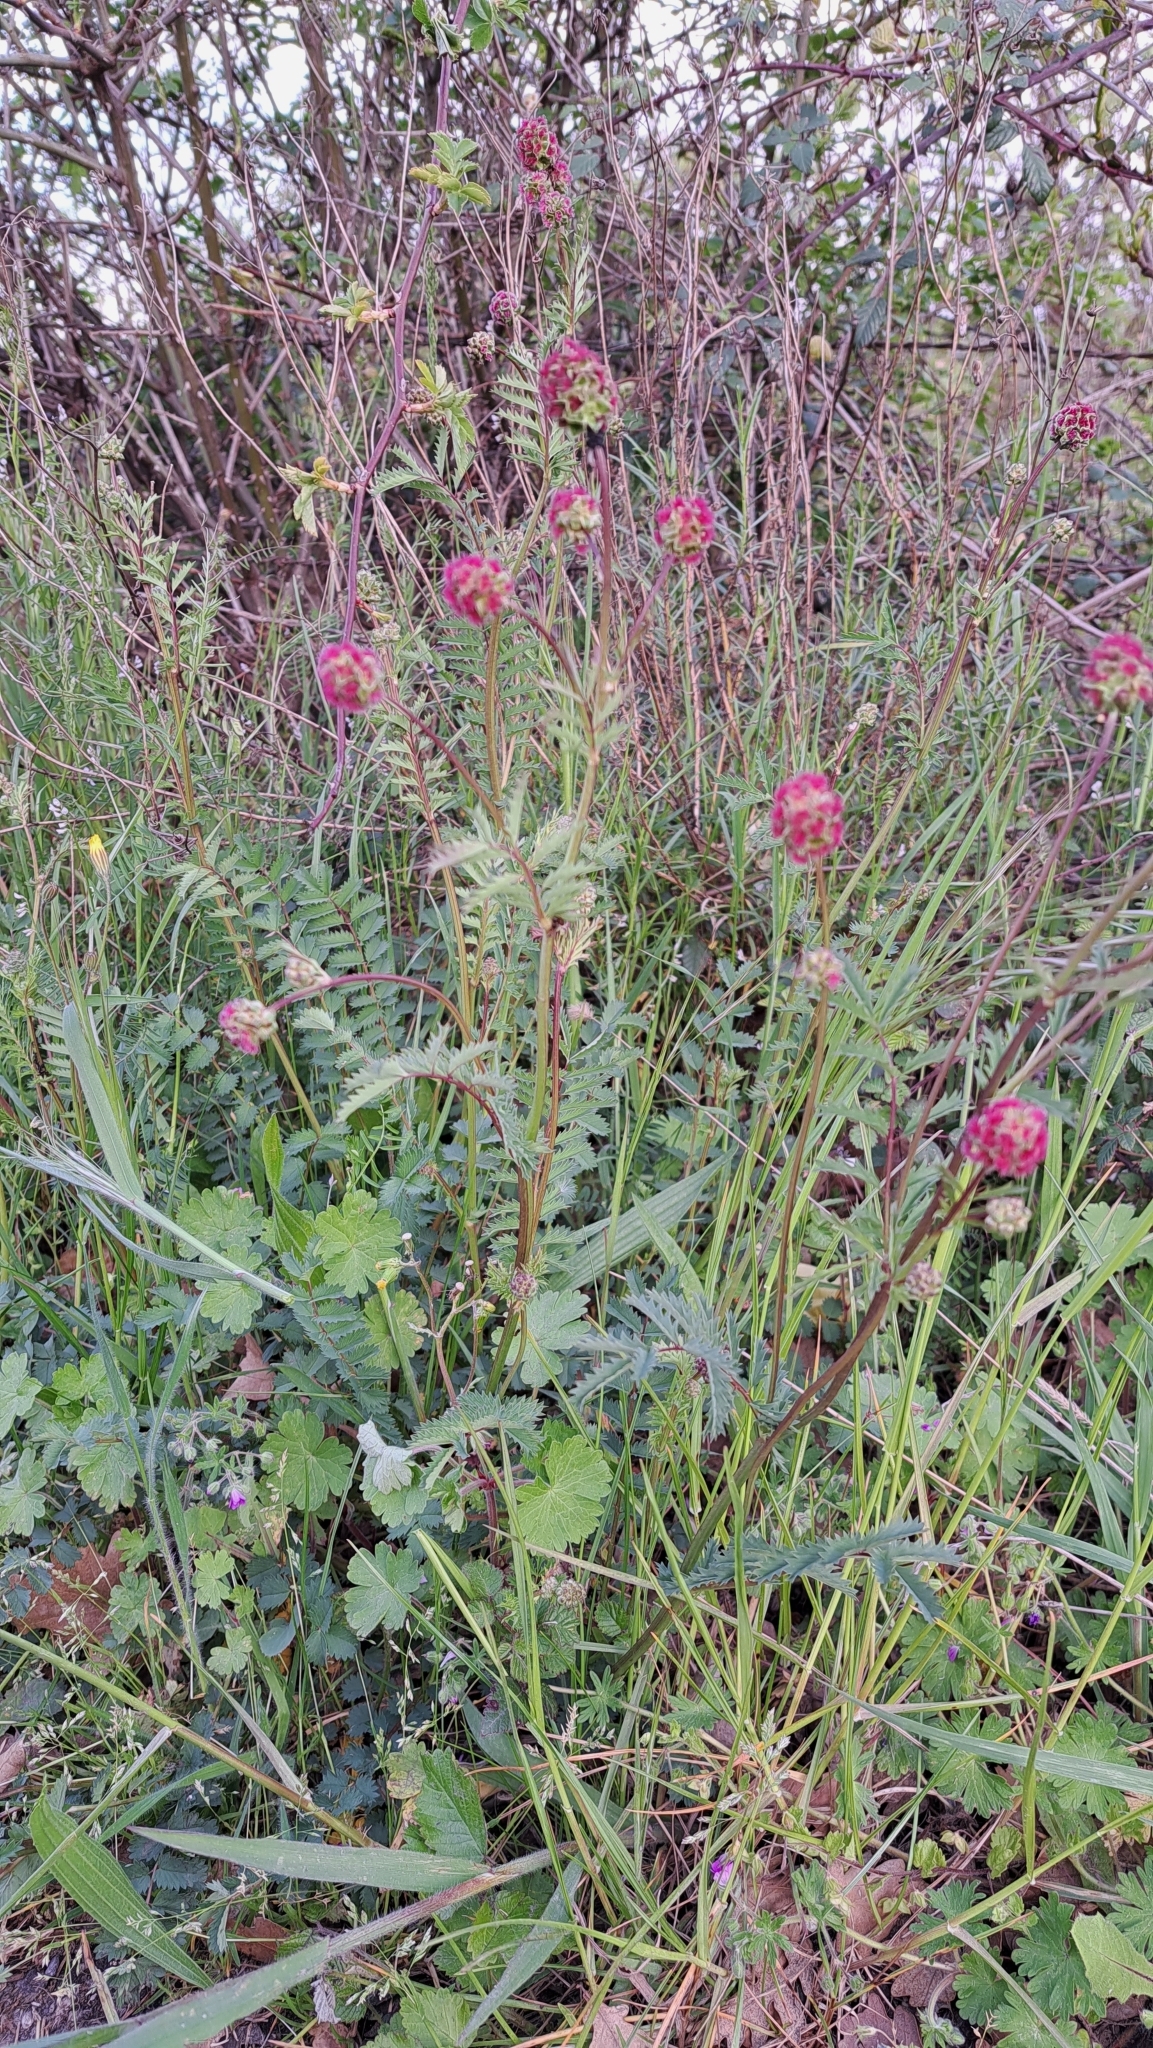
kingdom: Plantae
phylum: Tracheophyta
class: Magnoliopsida
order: Rosales
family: Rosaceae
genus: Poterium
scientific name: Poterium sanguisorba
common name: Salad burnet
